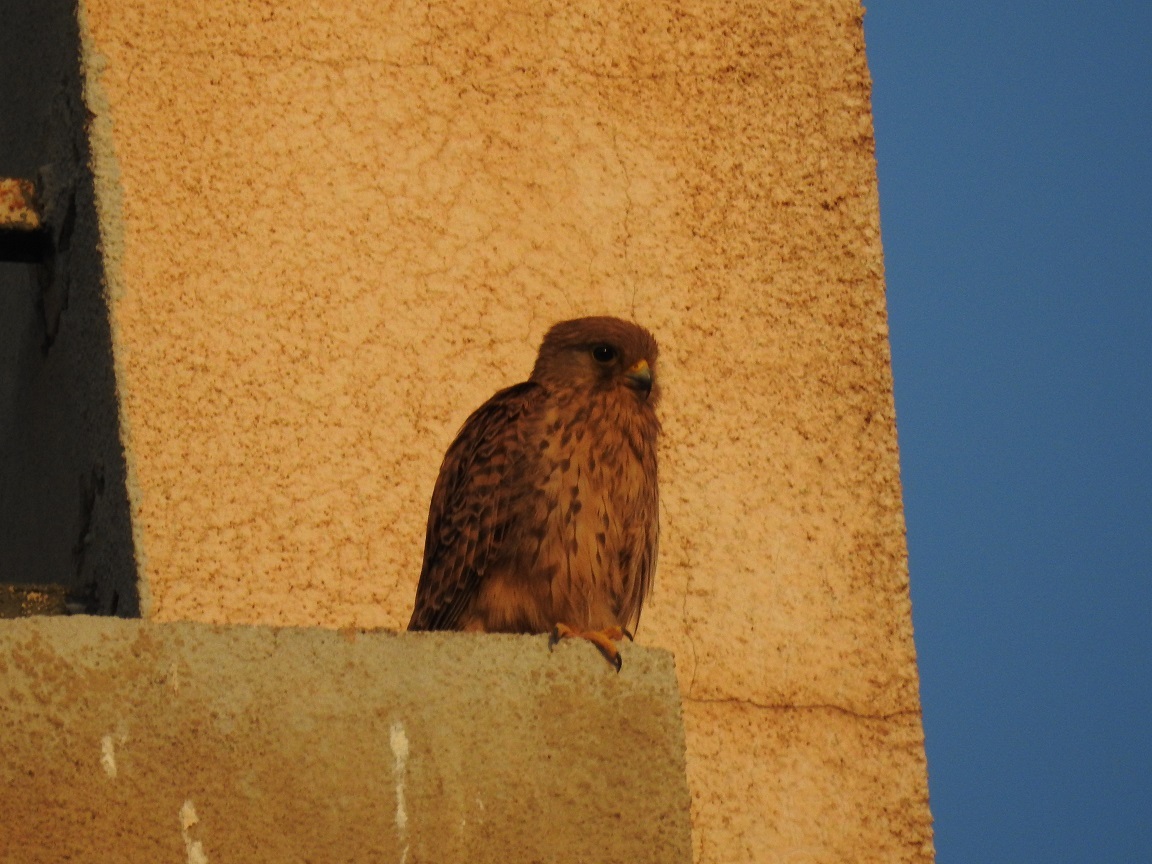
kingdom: Animalia
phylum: Chordata
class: Aves
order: Falconiformes
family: Falconidae
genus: Falco
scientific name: Falco tinnunculus
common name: Common kestrel
